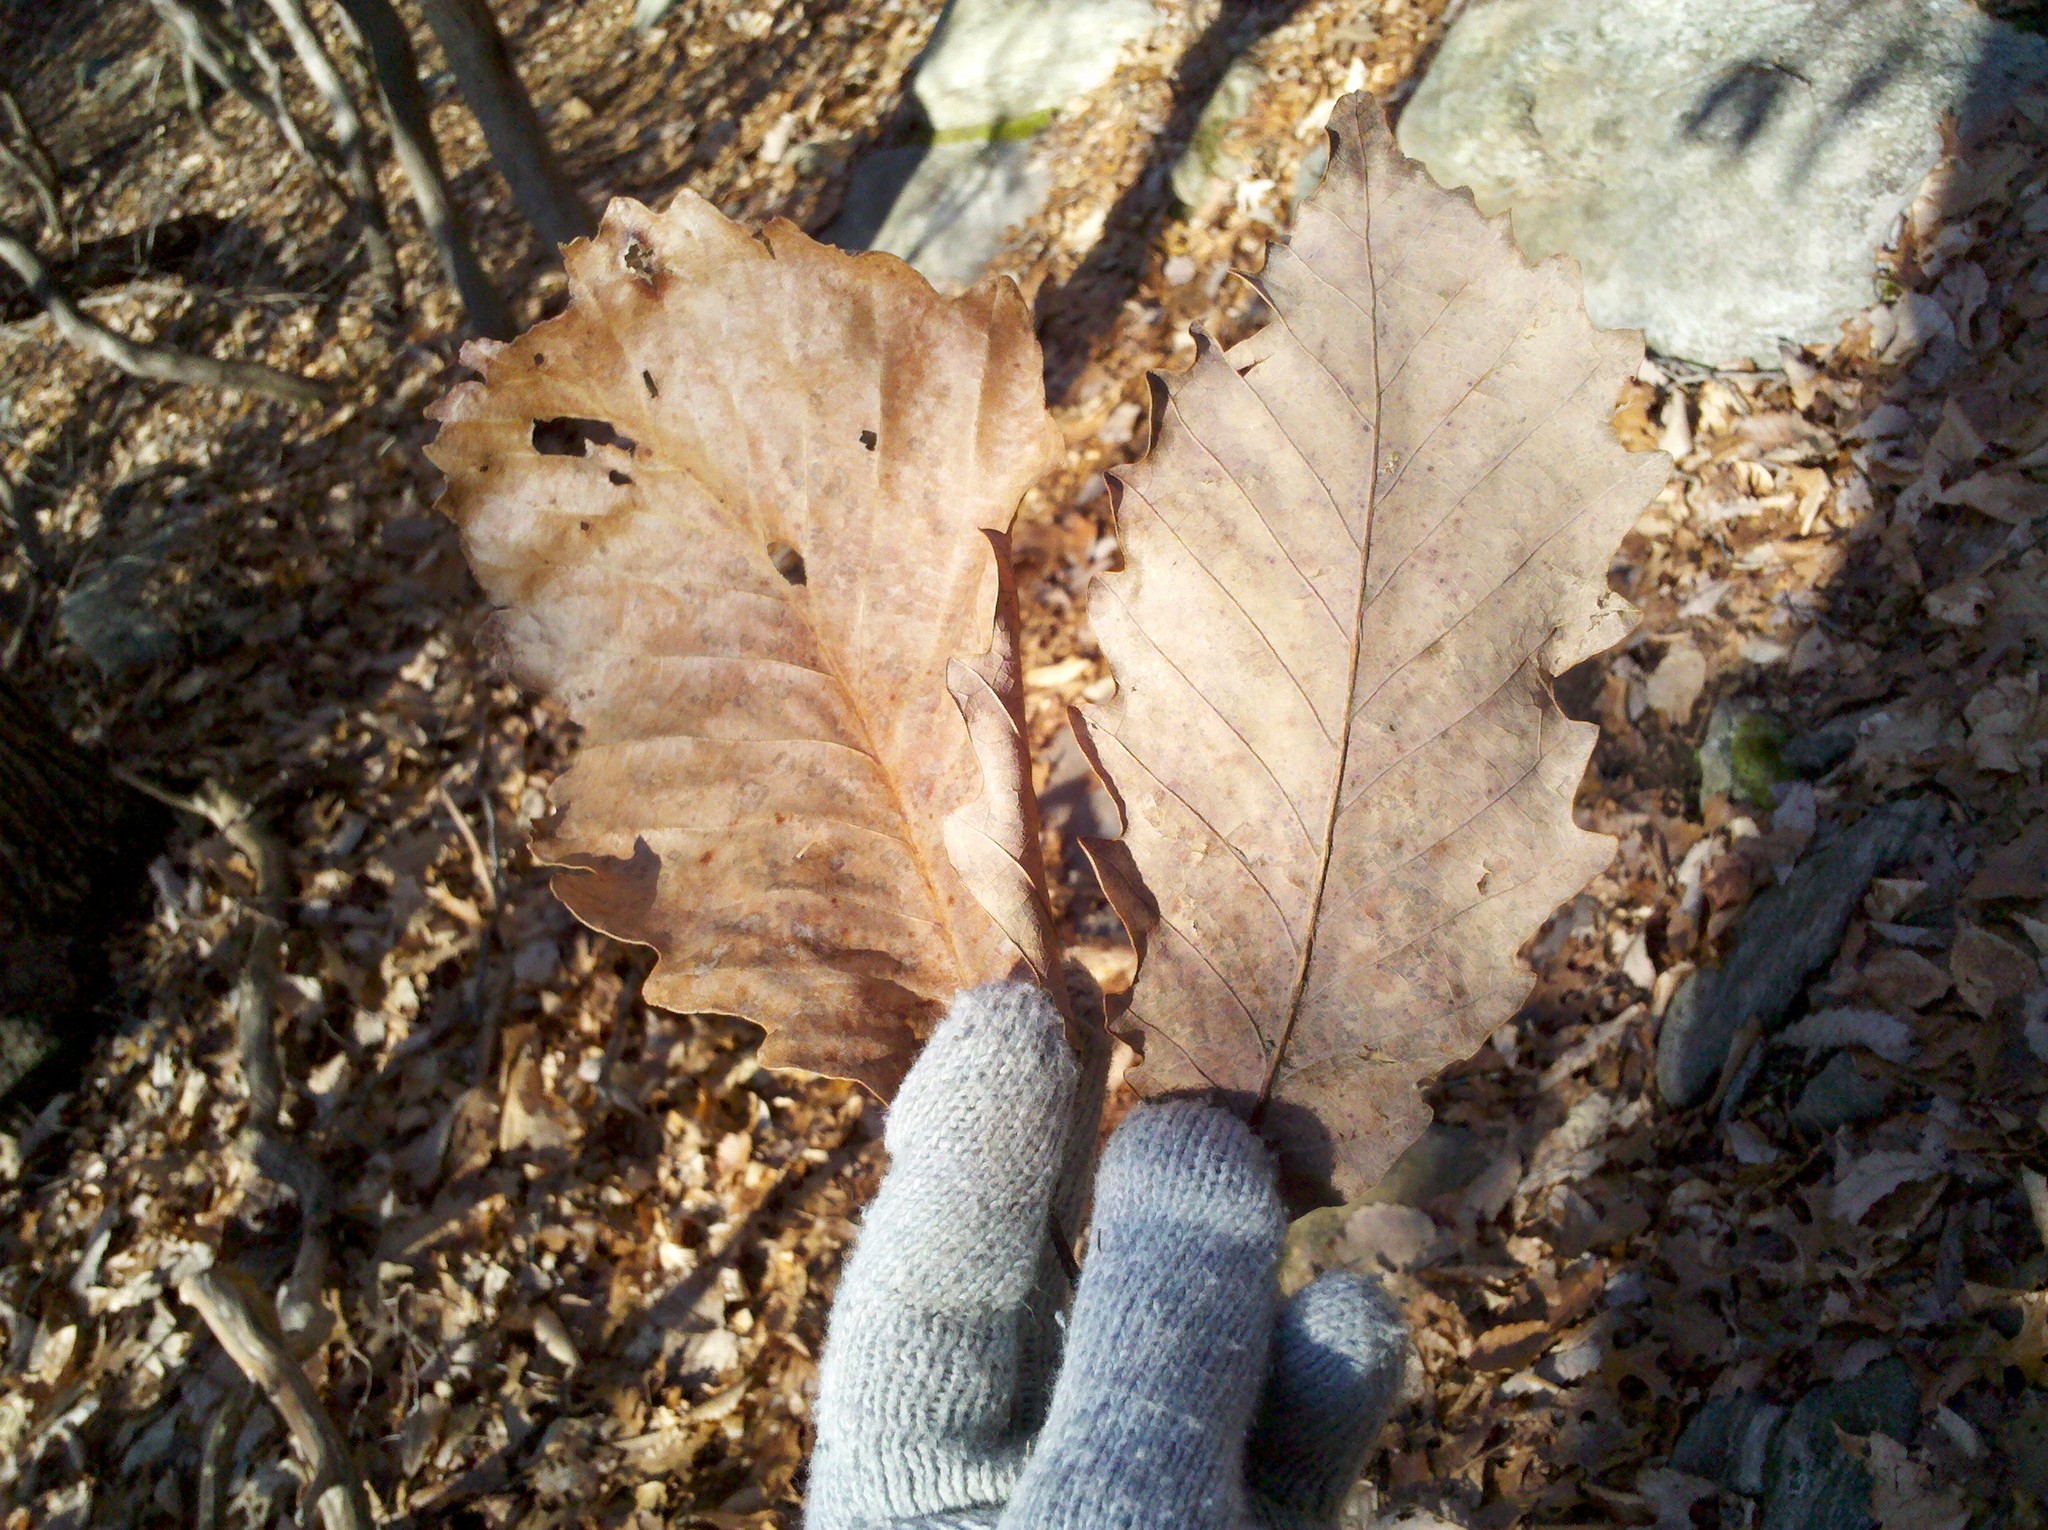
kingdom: Plantae
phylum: Tracheophyta
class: Magnoliopsida
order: Fagales
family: Fagaceae
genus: Quercus
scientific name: Quercus montana
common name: Chestnut oak
